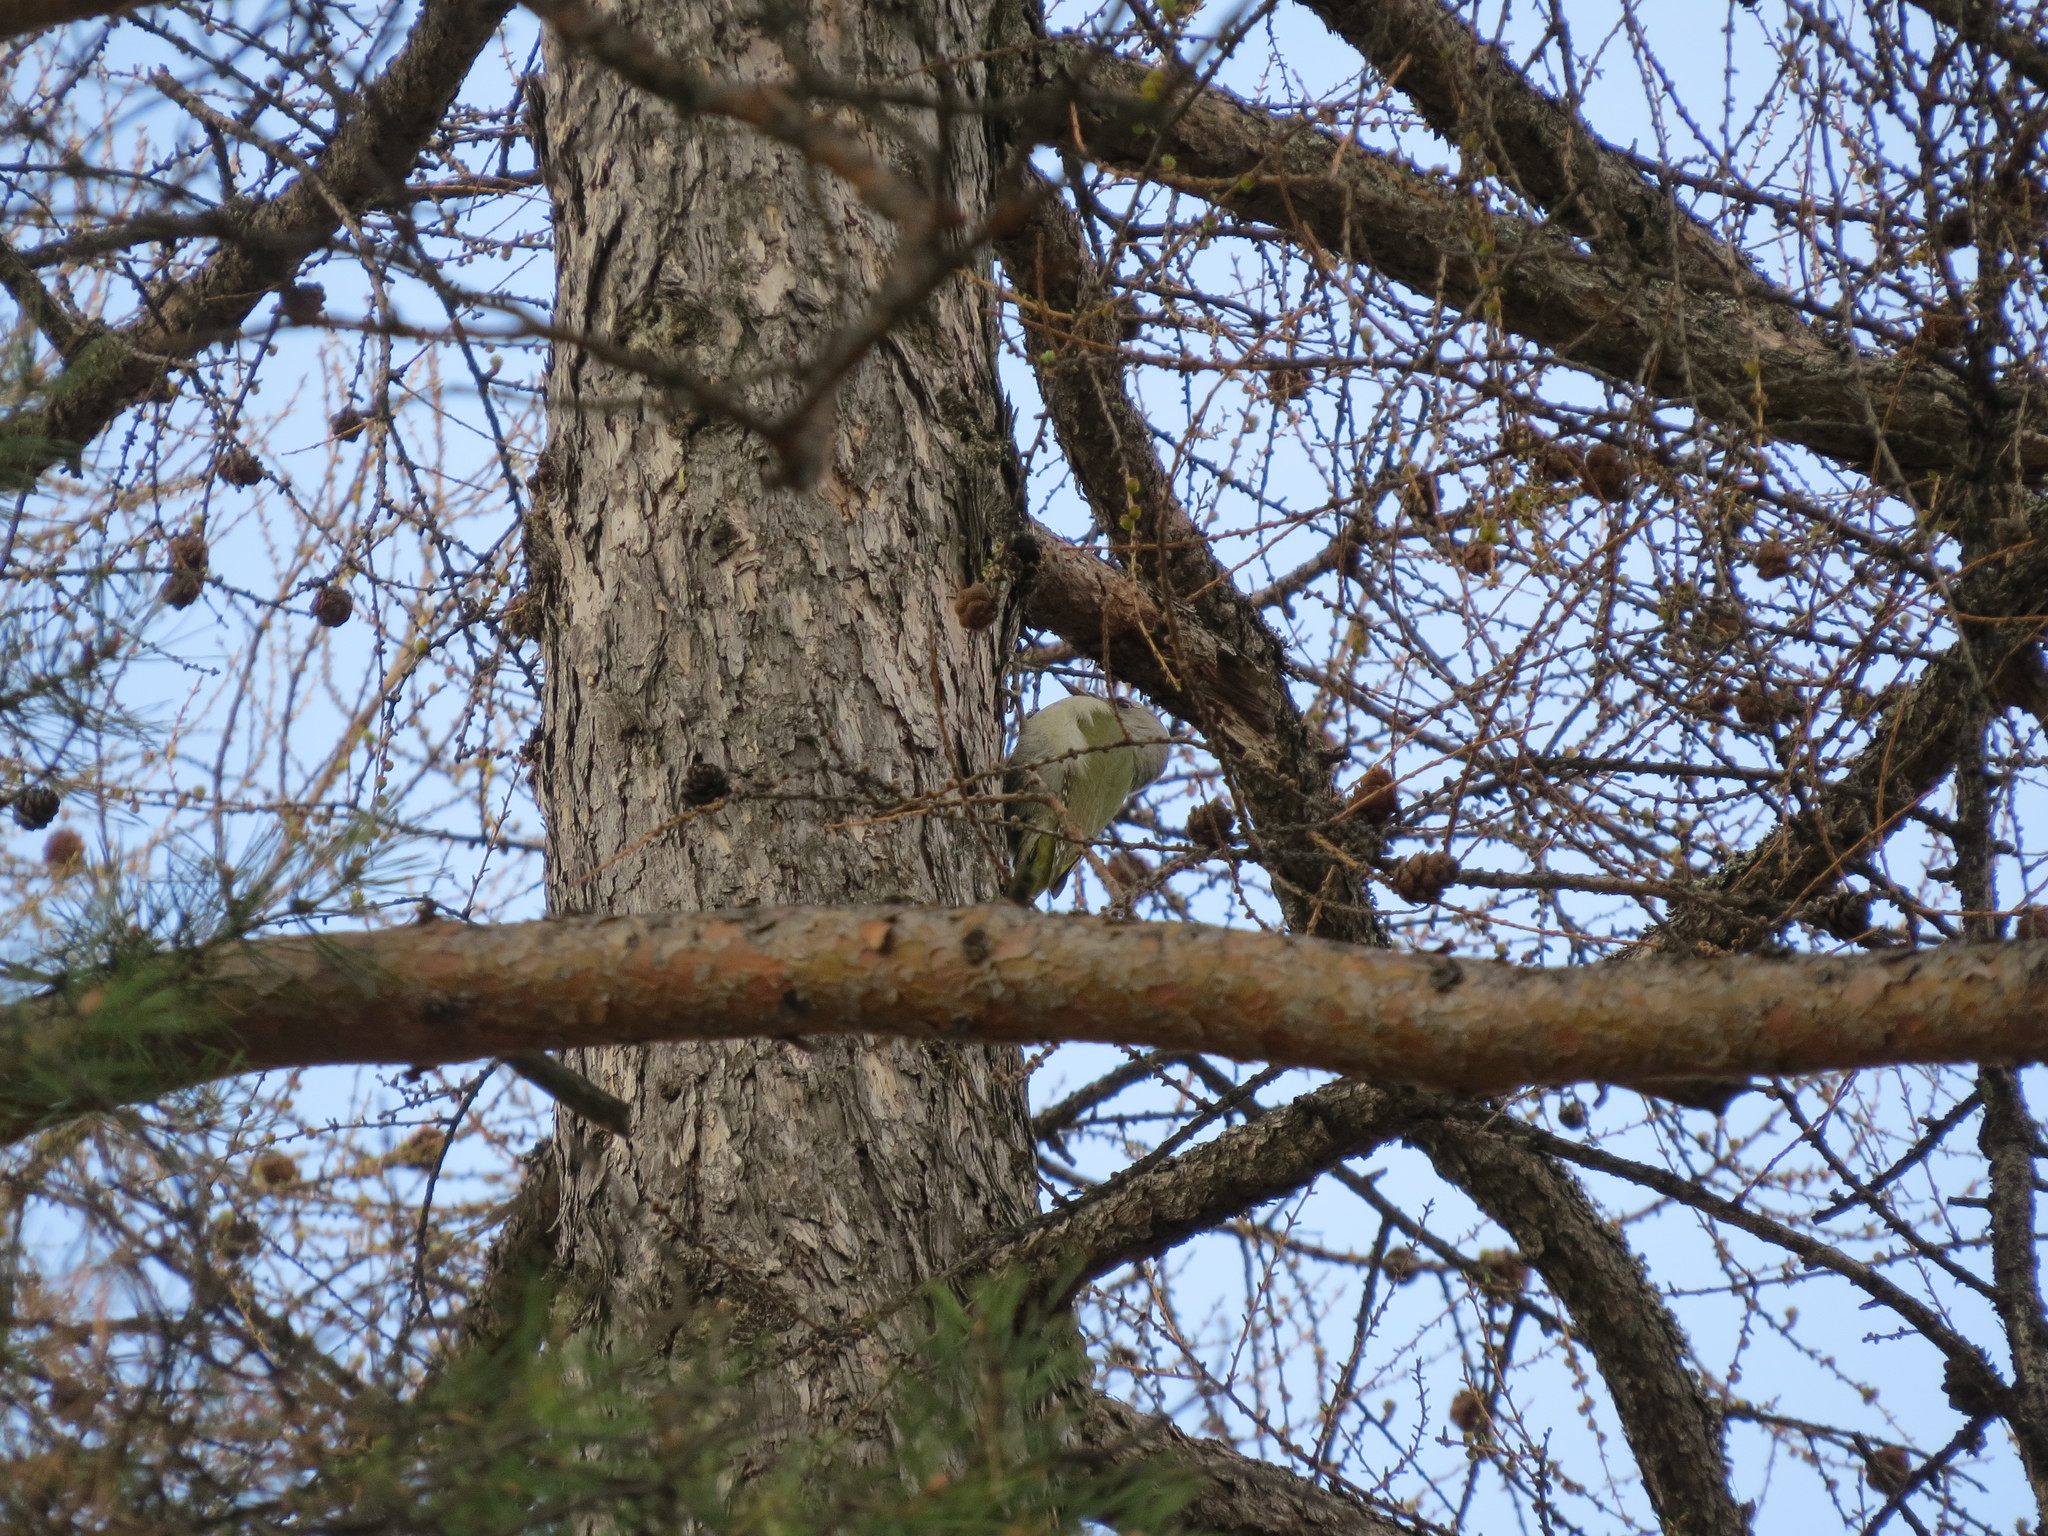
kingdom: Animalia
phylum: Chordata
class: Aves
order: Piciformes
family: Picidae
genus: Picus
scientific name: Picus canus
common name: Grey-headed woodpecker
